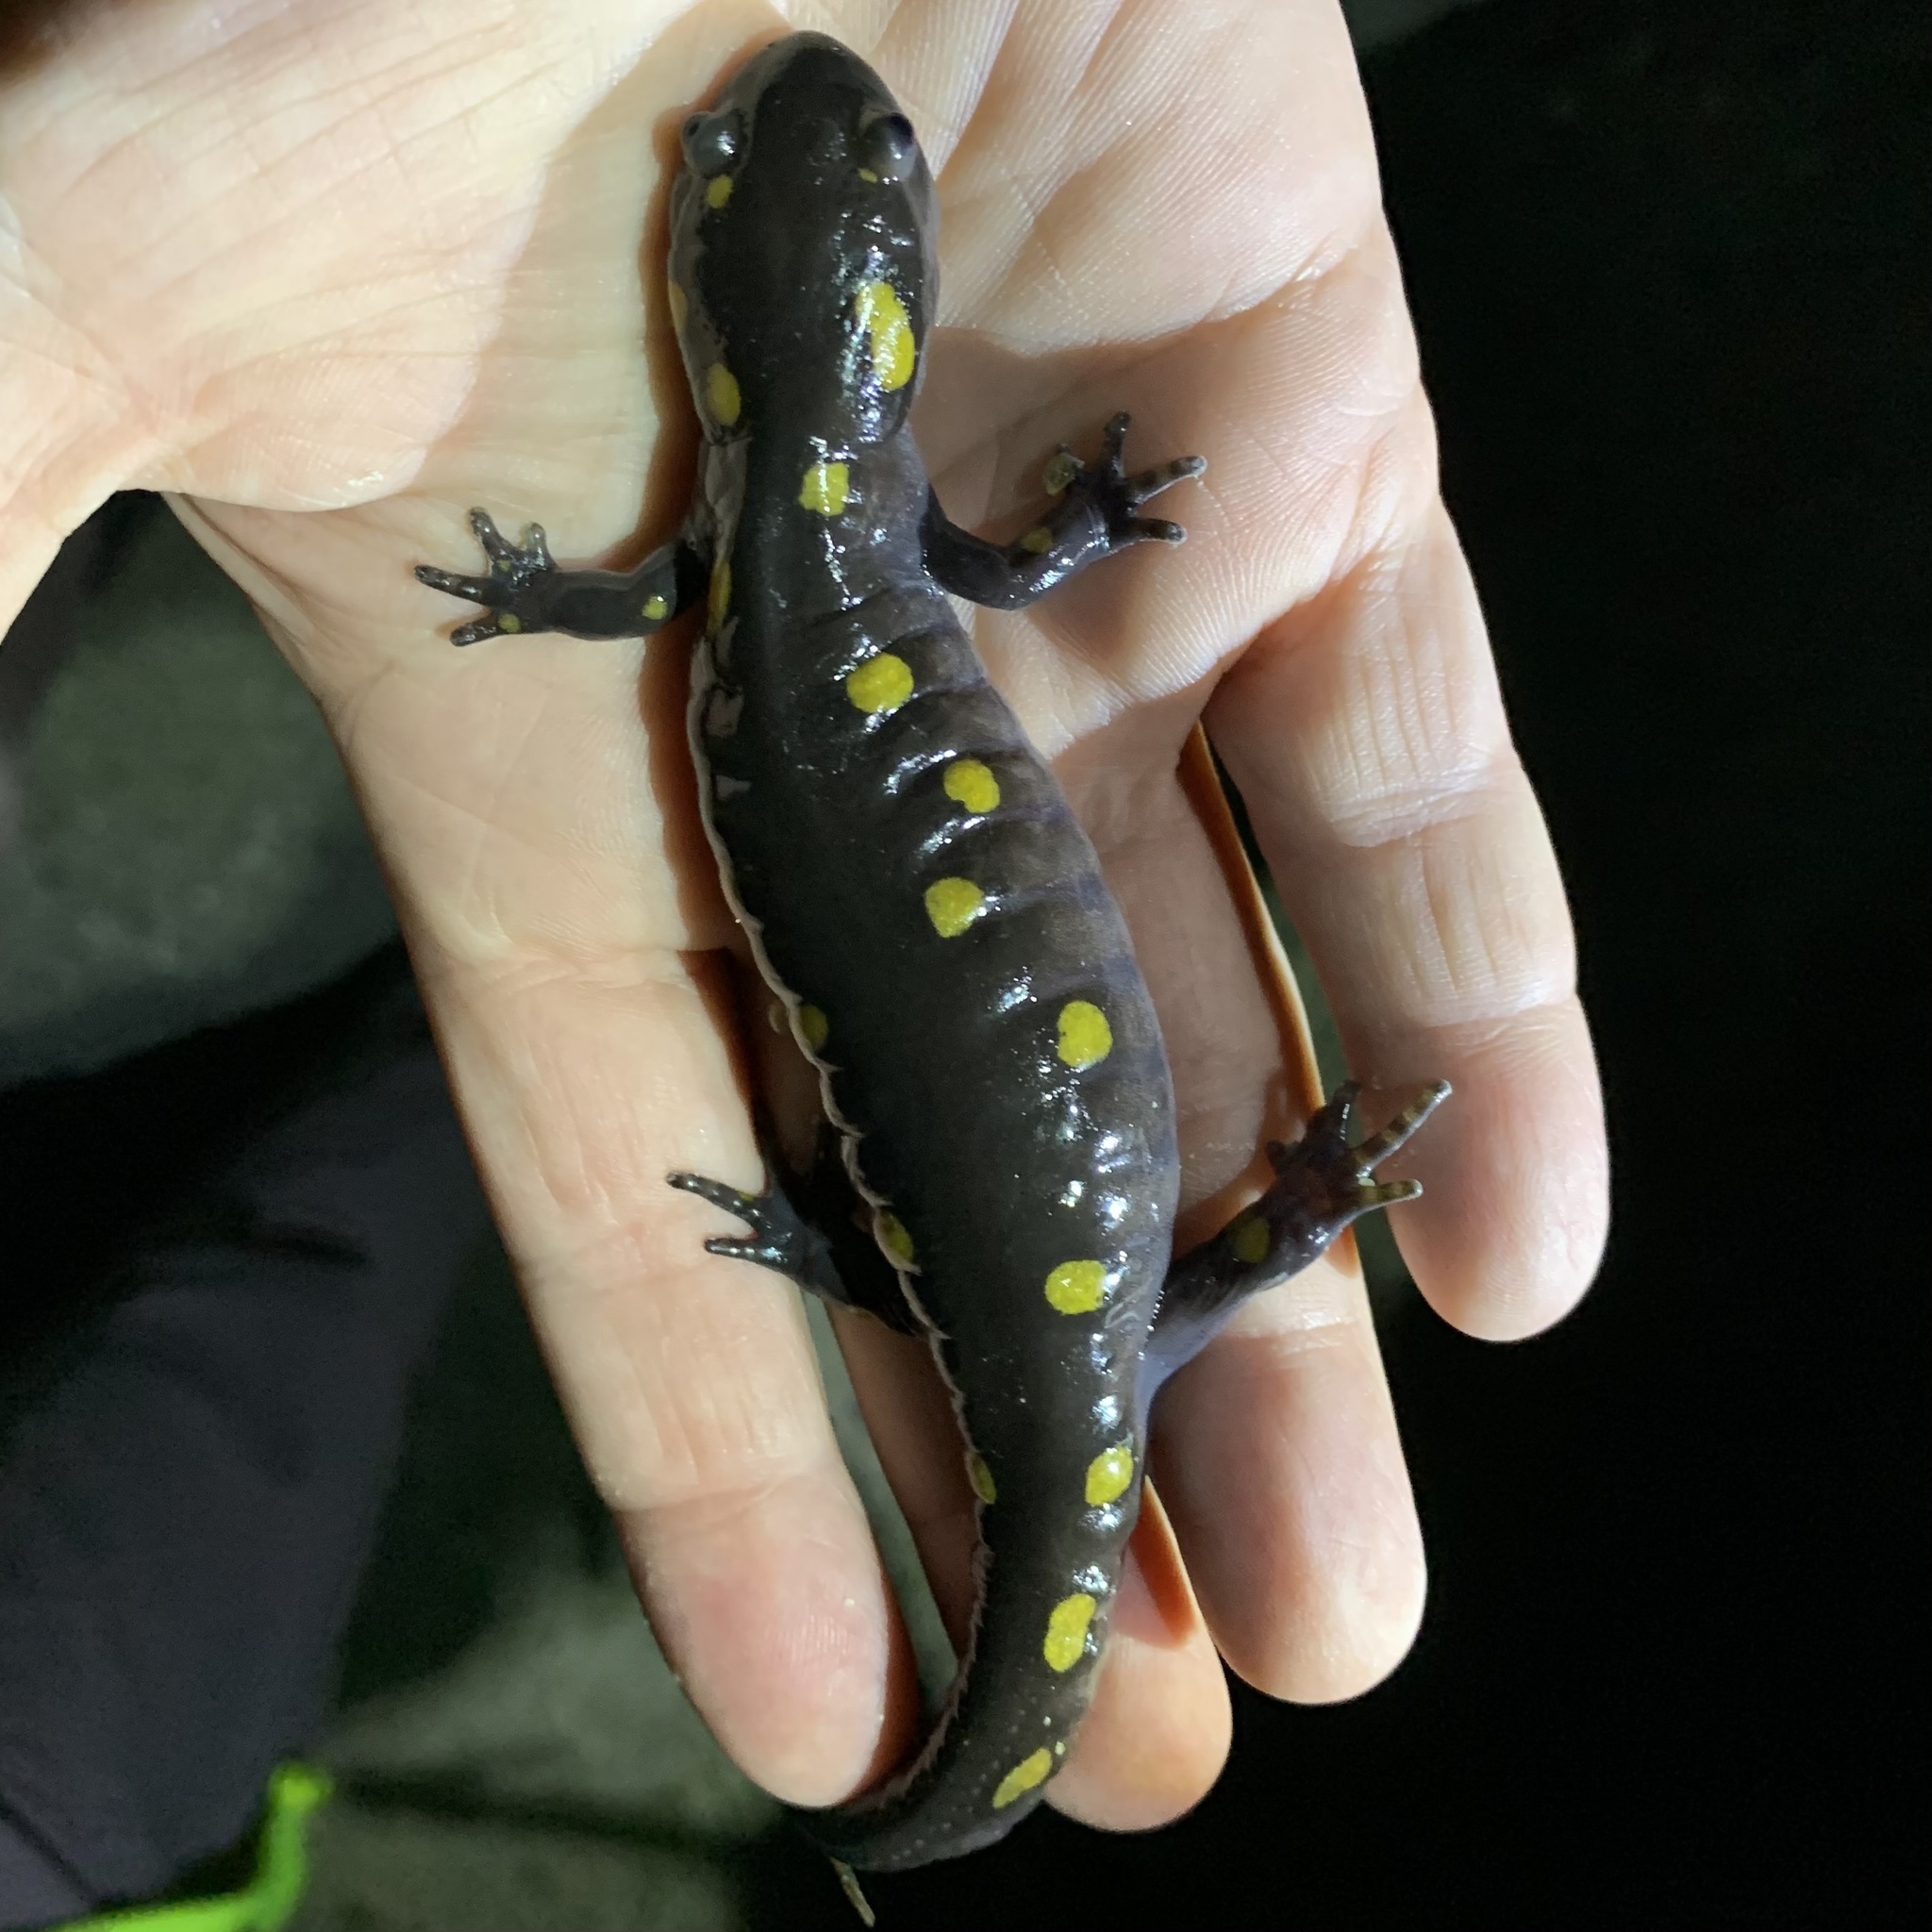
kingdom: Animalia
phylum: Chordata
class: Amphibia
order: Caudata
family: Ambystomatidae
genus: Ambystoma
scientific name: Ambystoma maculatum
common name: Spotted salamander
